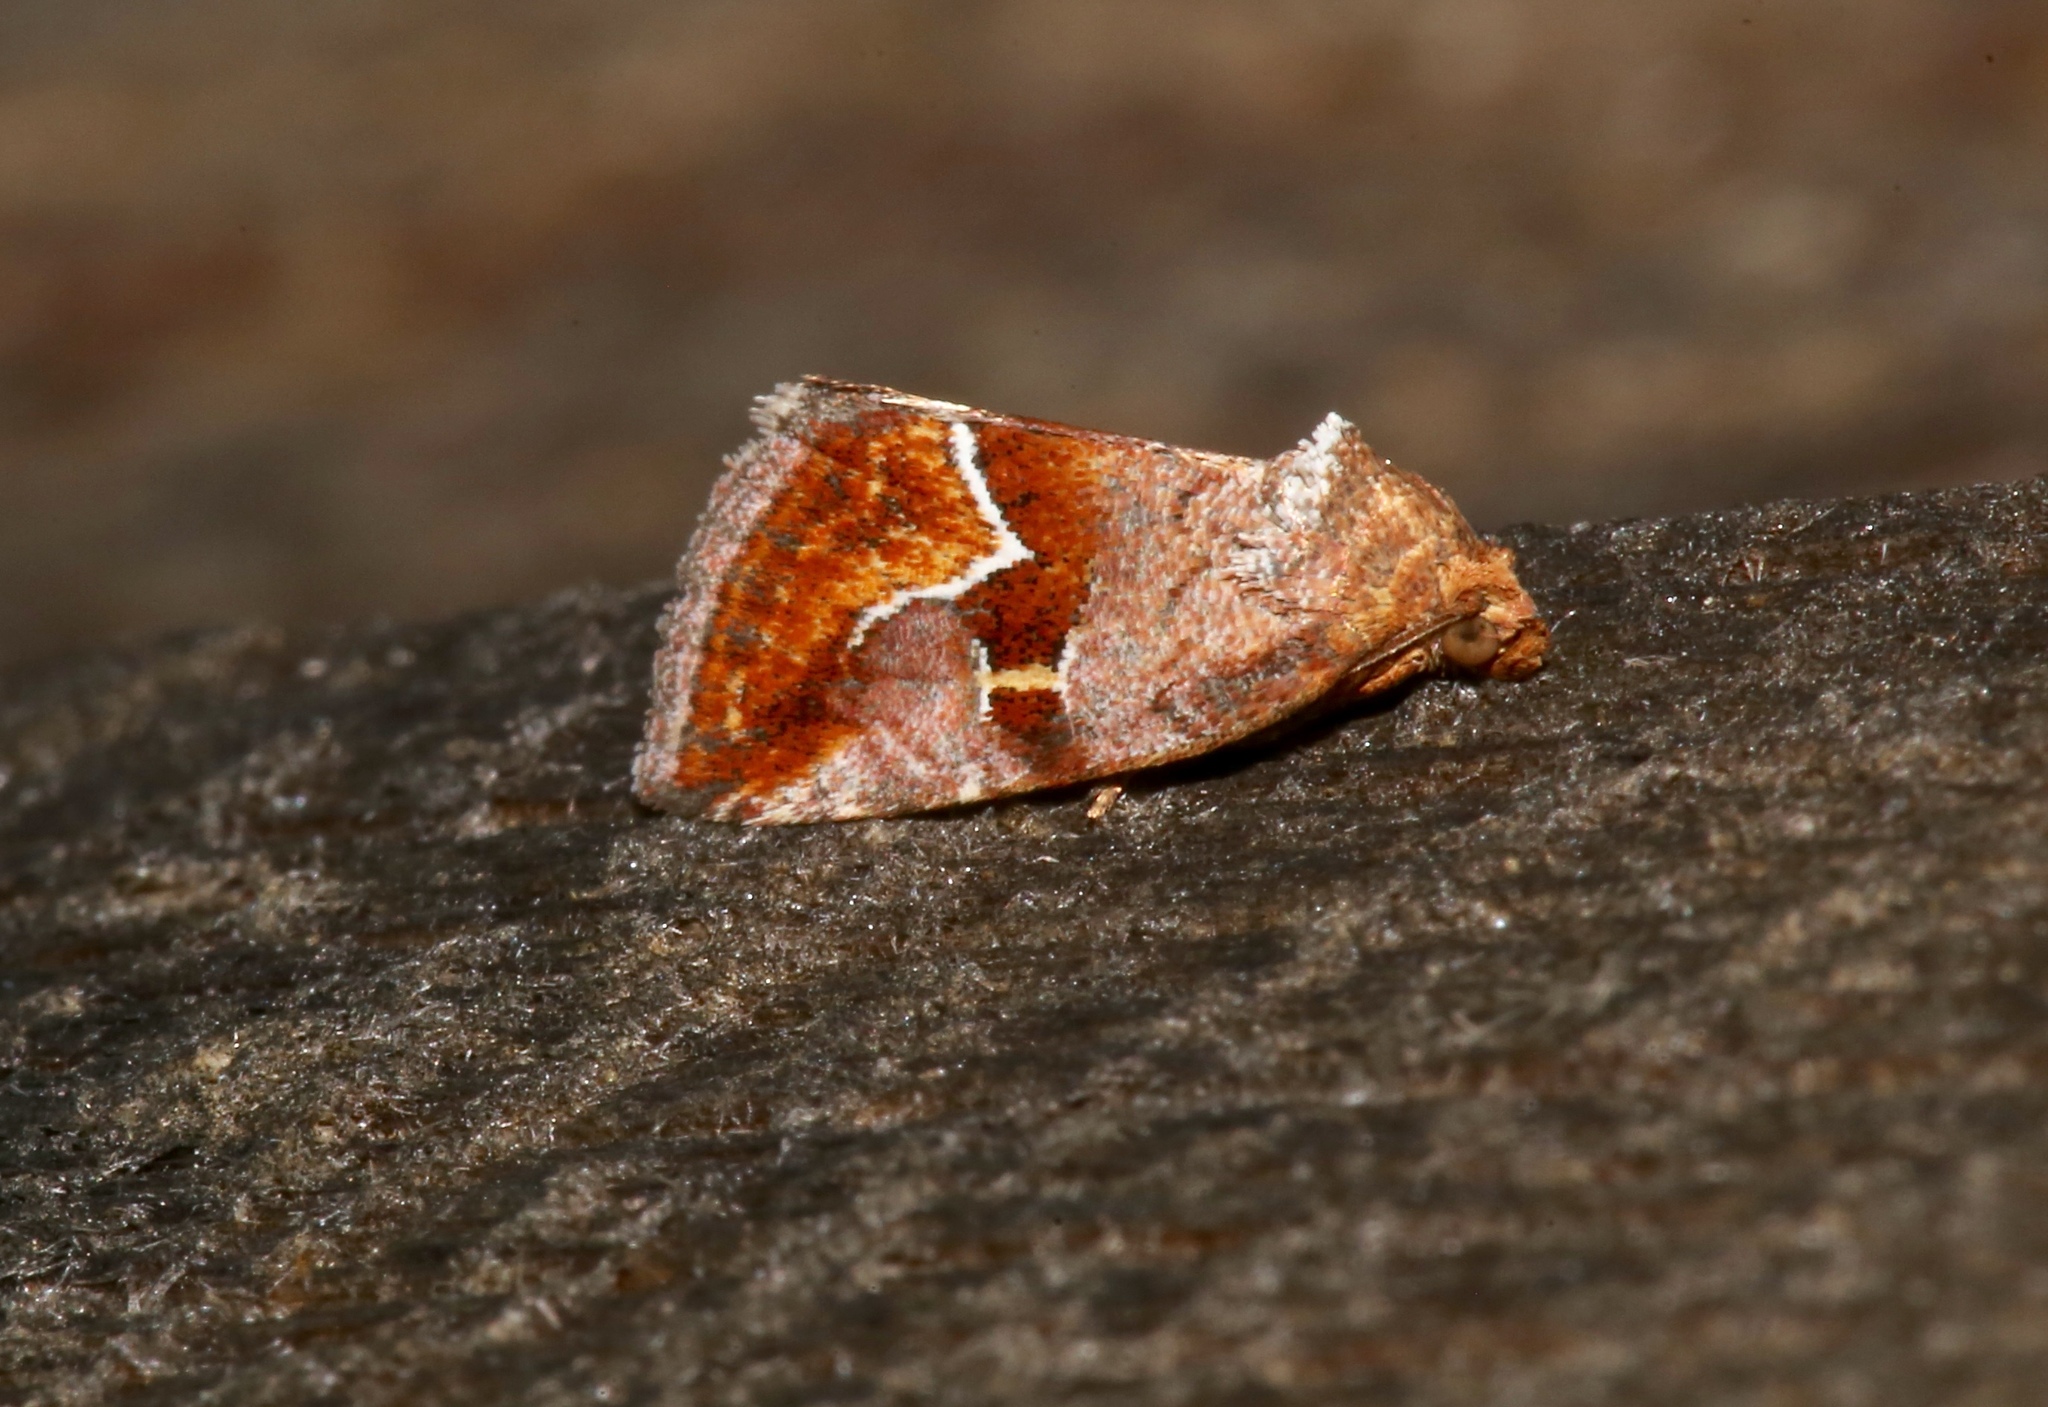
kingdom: Animalia
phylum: Arthropoda
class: Insecta
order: Lepidoptera
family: Noctuidae
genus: Deltote
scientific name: Deltote bellicula
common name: Bog glyph
